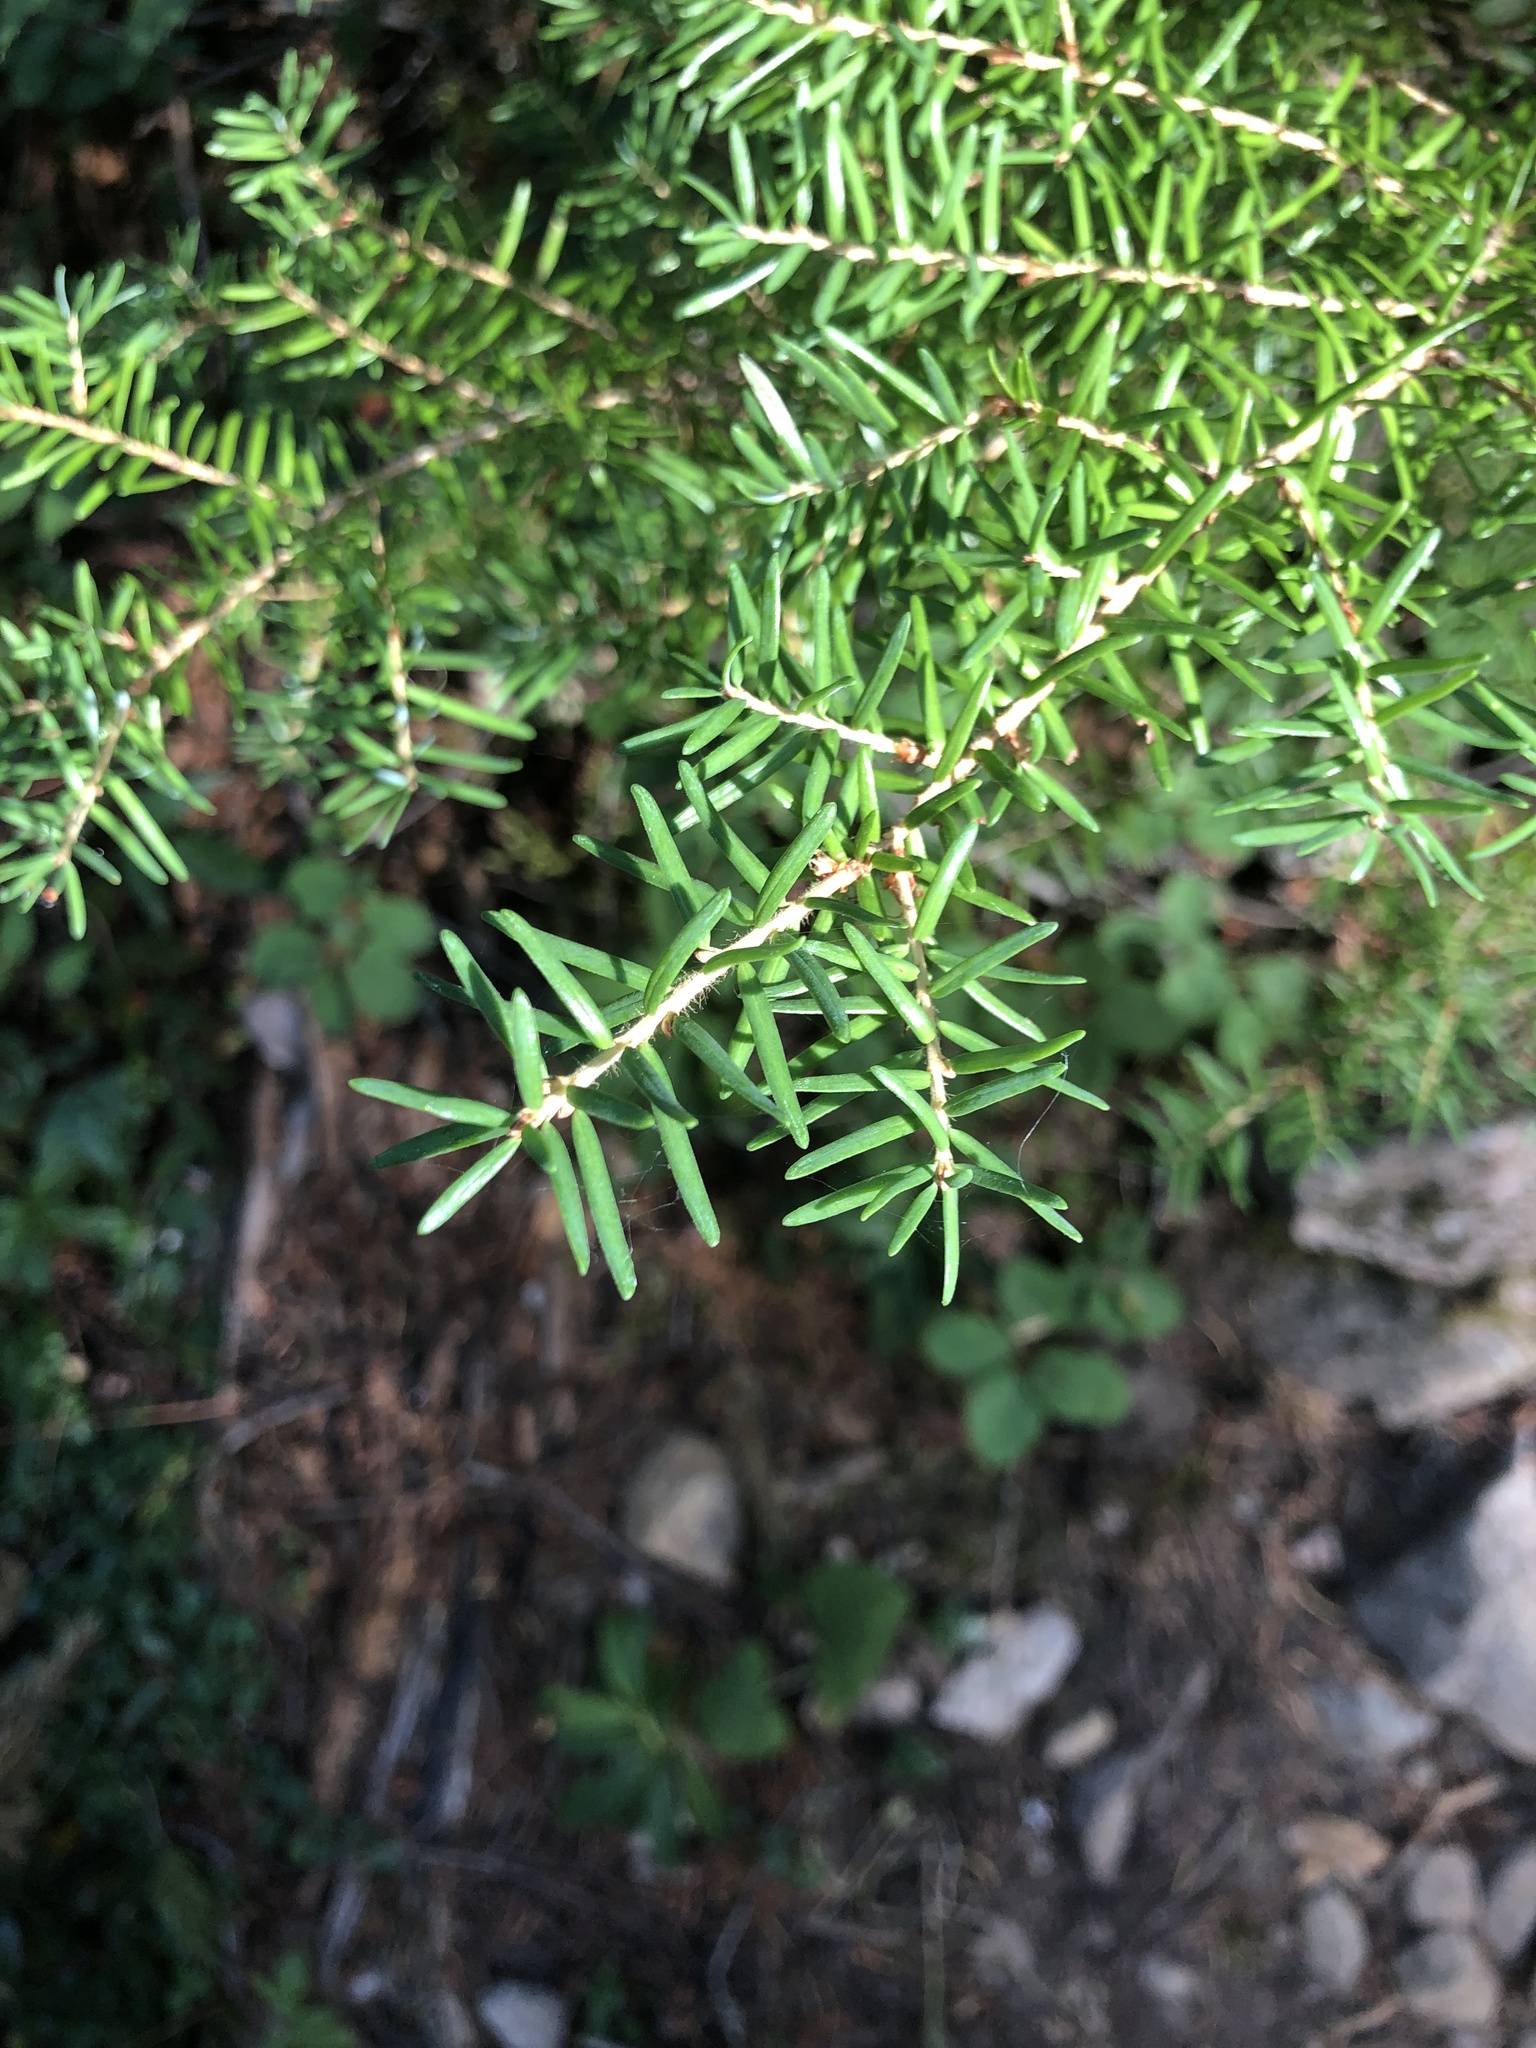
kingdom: Plantae
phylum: Tracheophyta
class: Pinopsida
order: Pinales
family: Pinaceae
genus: Tsuga
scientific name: Tsuga mertensiana
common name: Mountain hemlock
